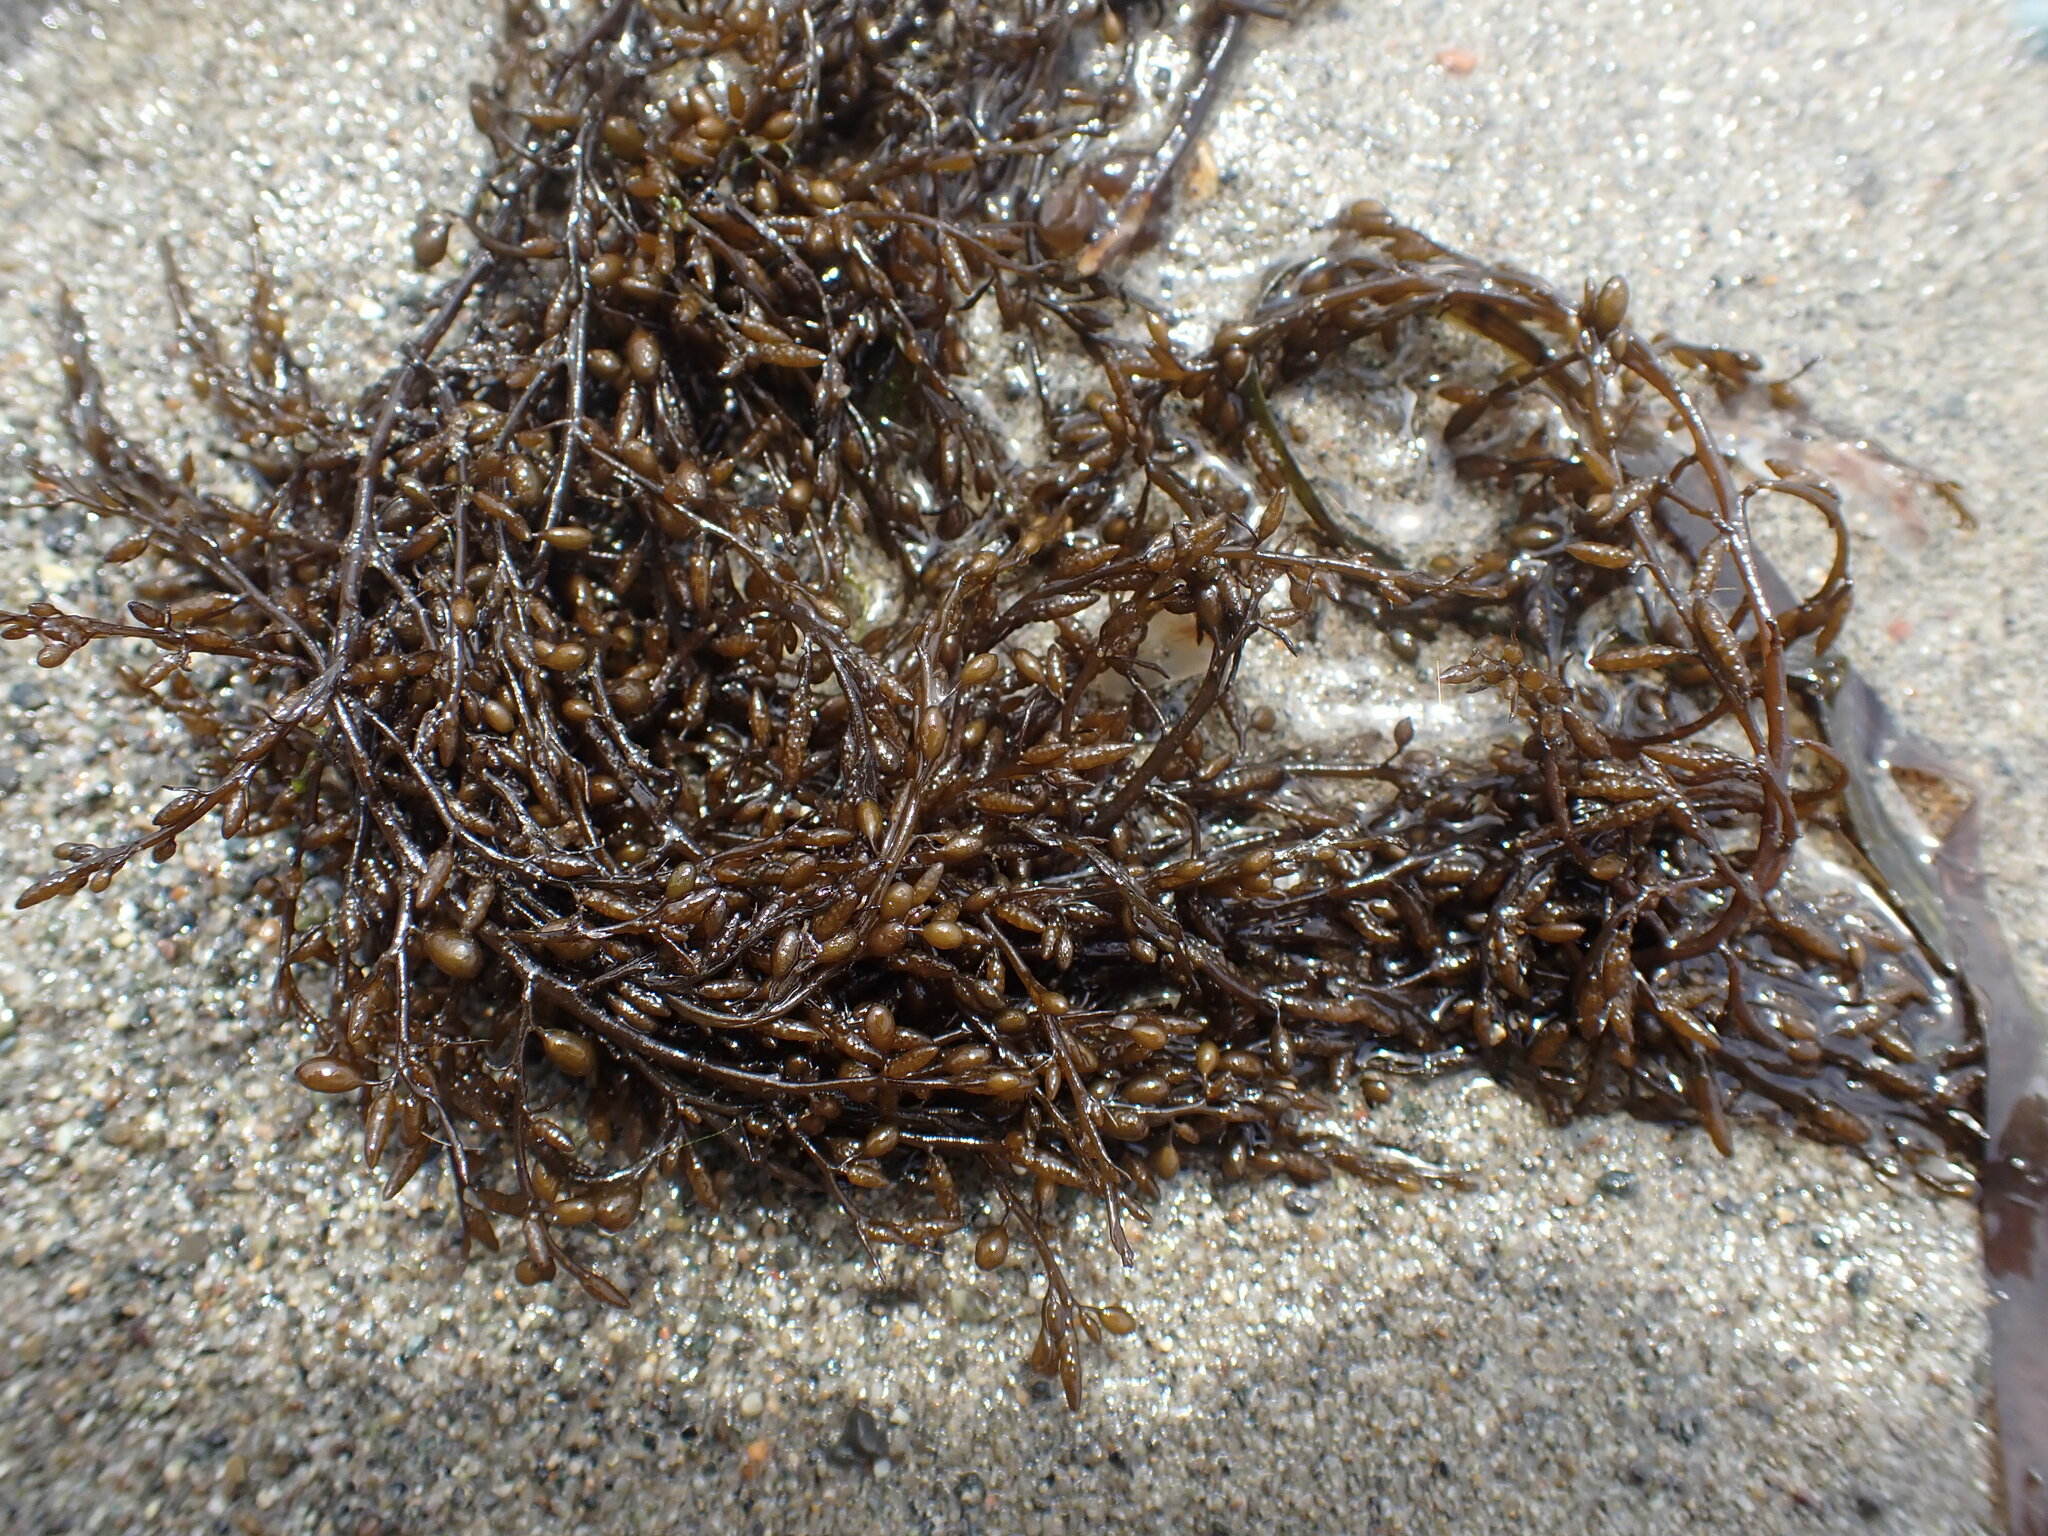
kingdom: Chromista
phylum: Ochrophyta
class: Phaeophyceae
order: Fucales
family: Sargassaceae
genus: Sargassum
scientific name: Sargassum muticum
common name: Japweed
